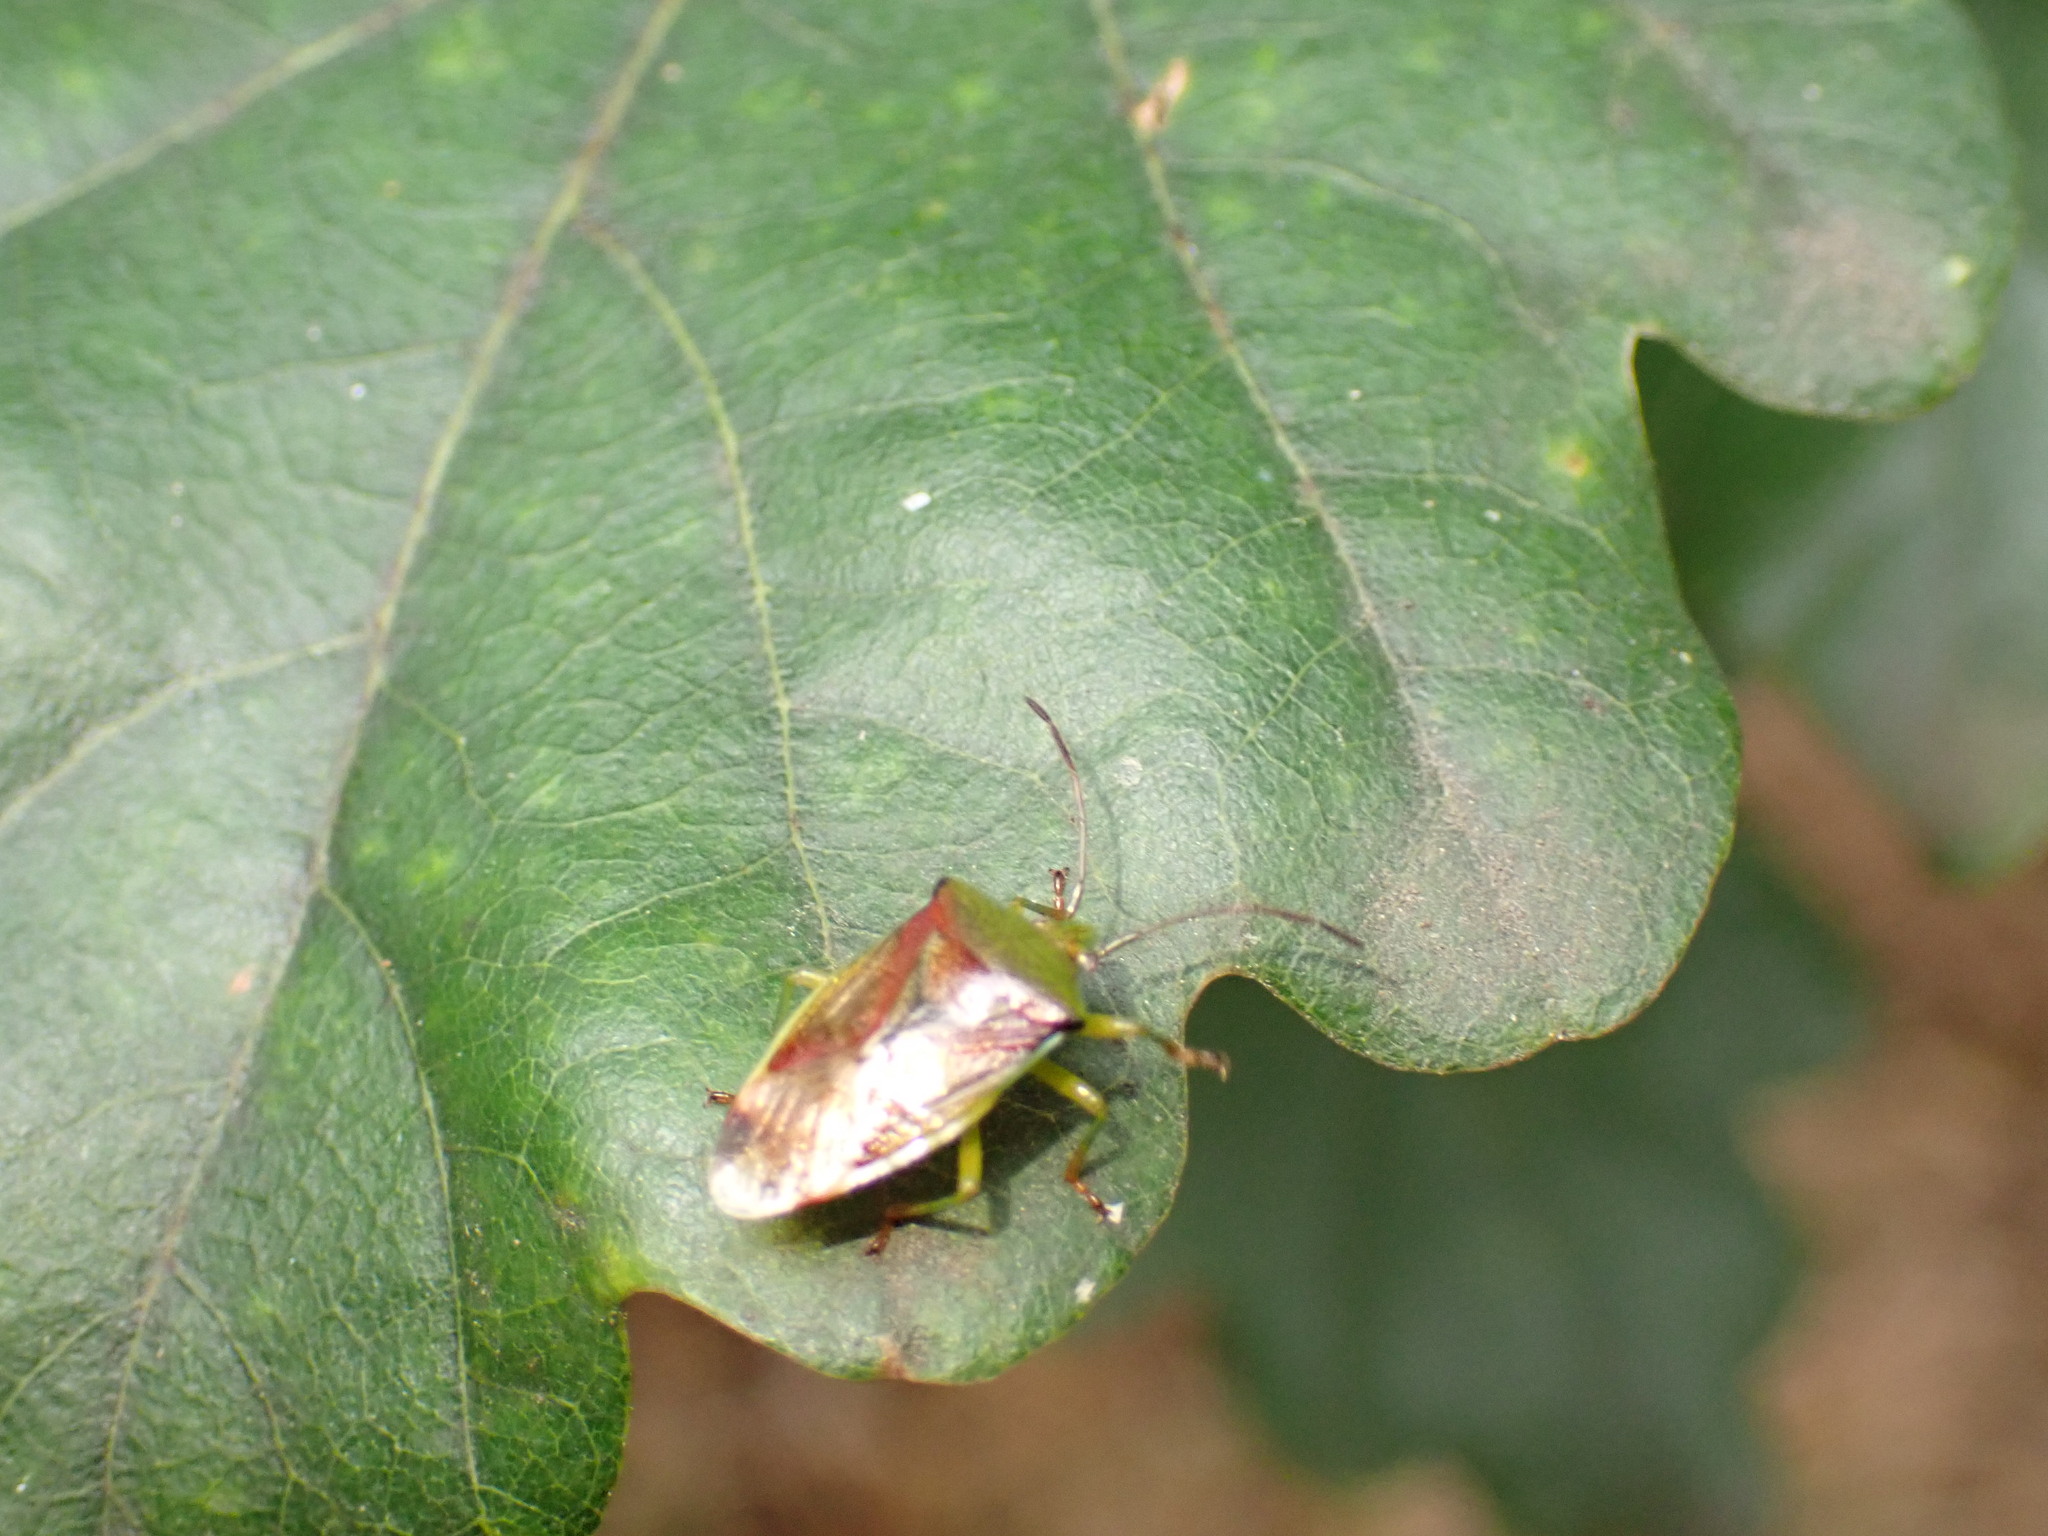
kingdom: Animalia
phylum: Arthropoda
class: Insecta
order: Hemiptera
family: Acanthosomatidae
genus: Elasmostethus
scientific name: Elasmostethus interstinctus
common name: Birch shieldbug
